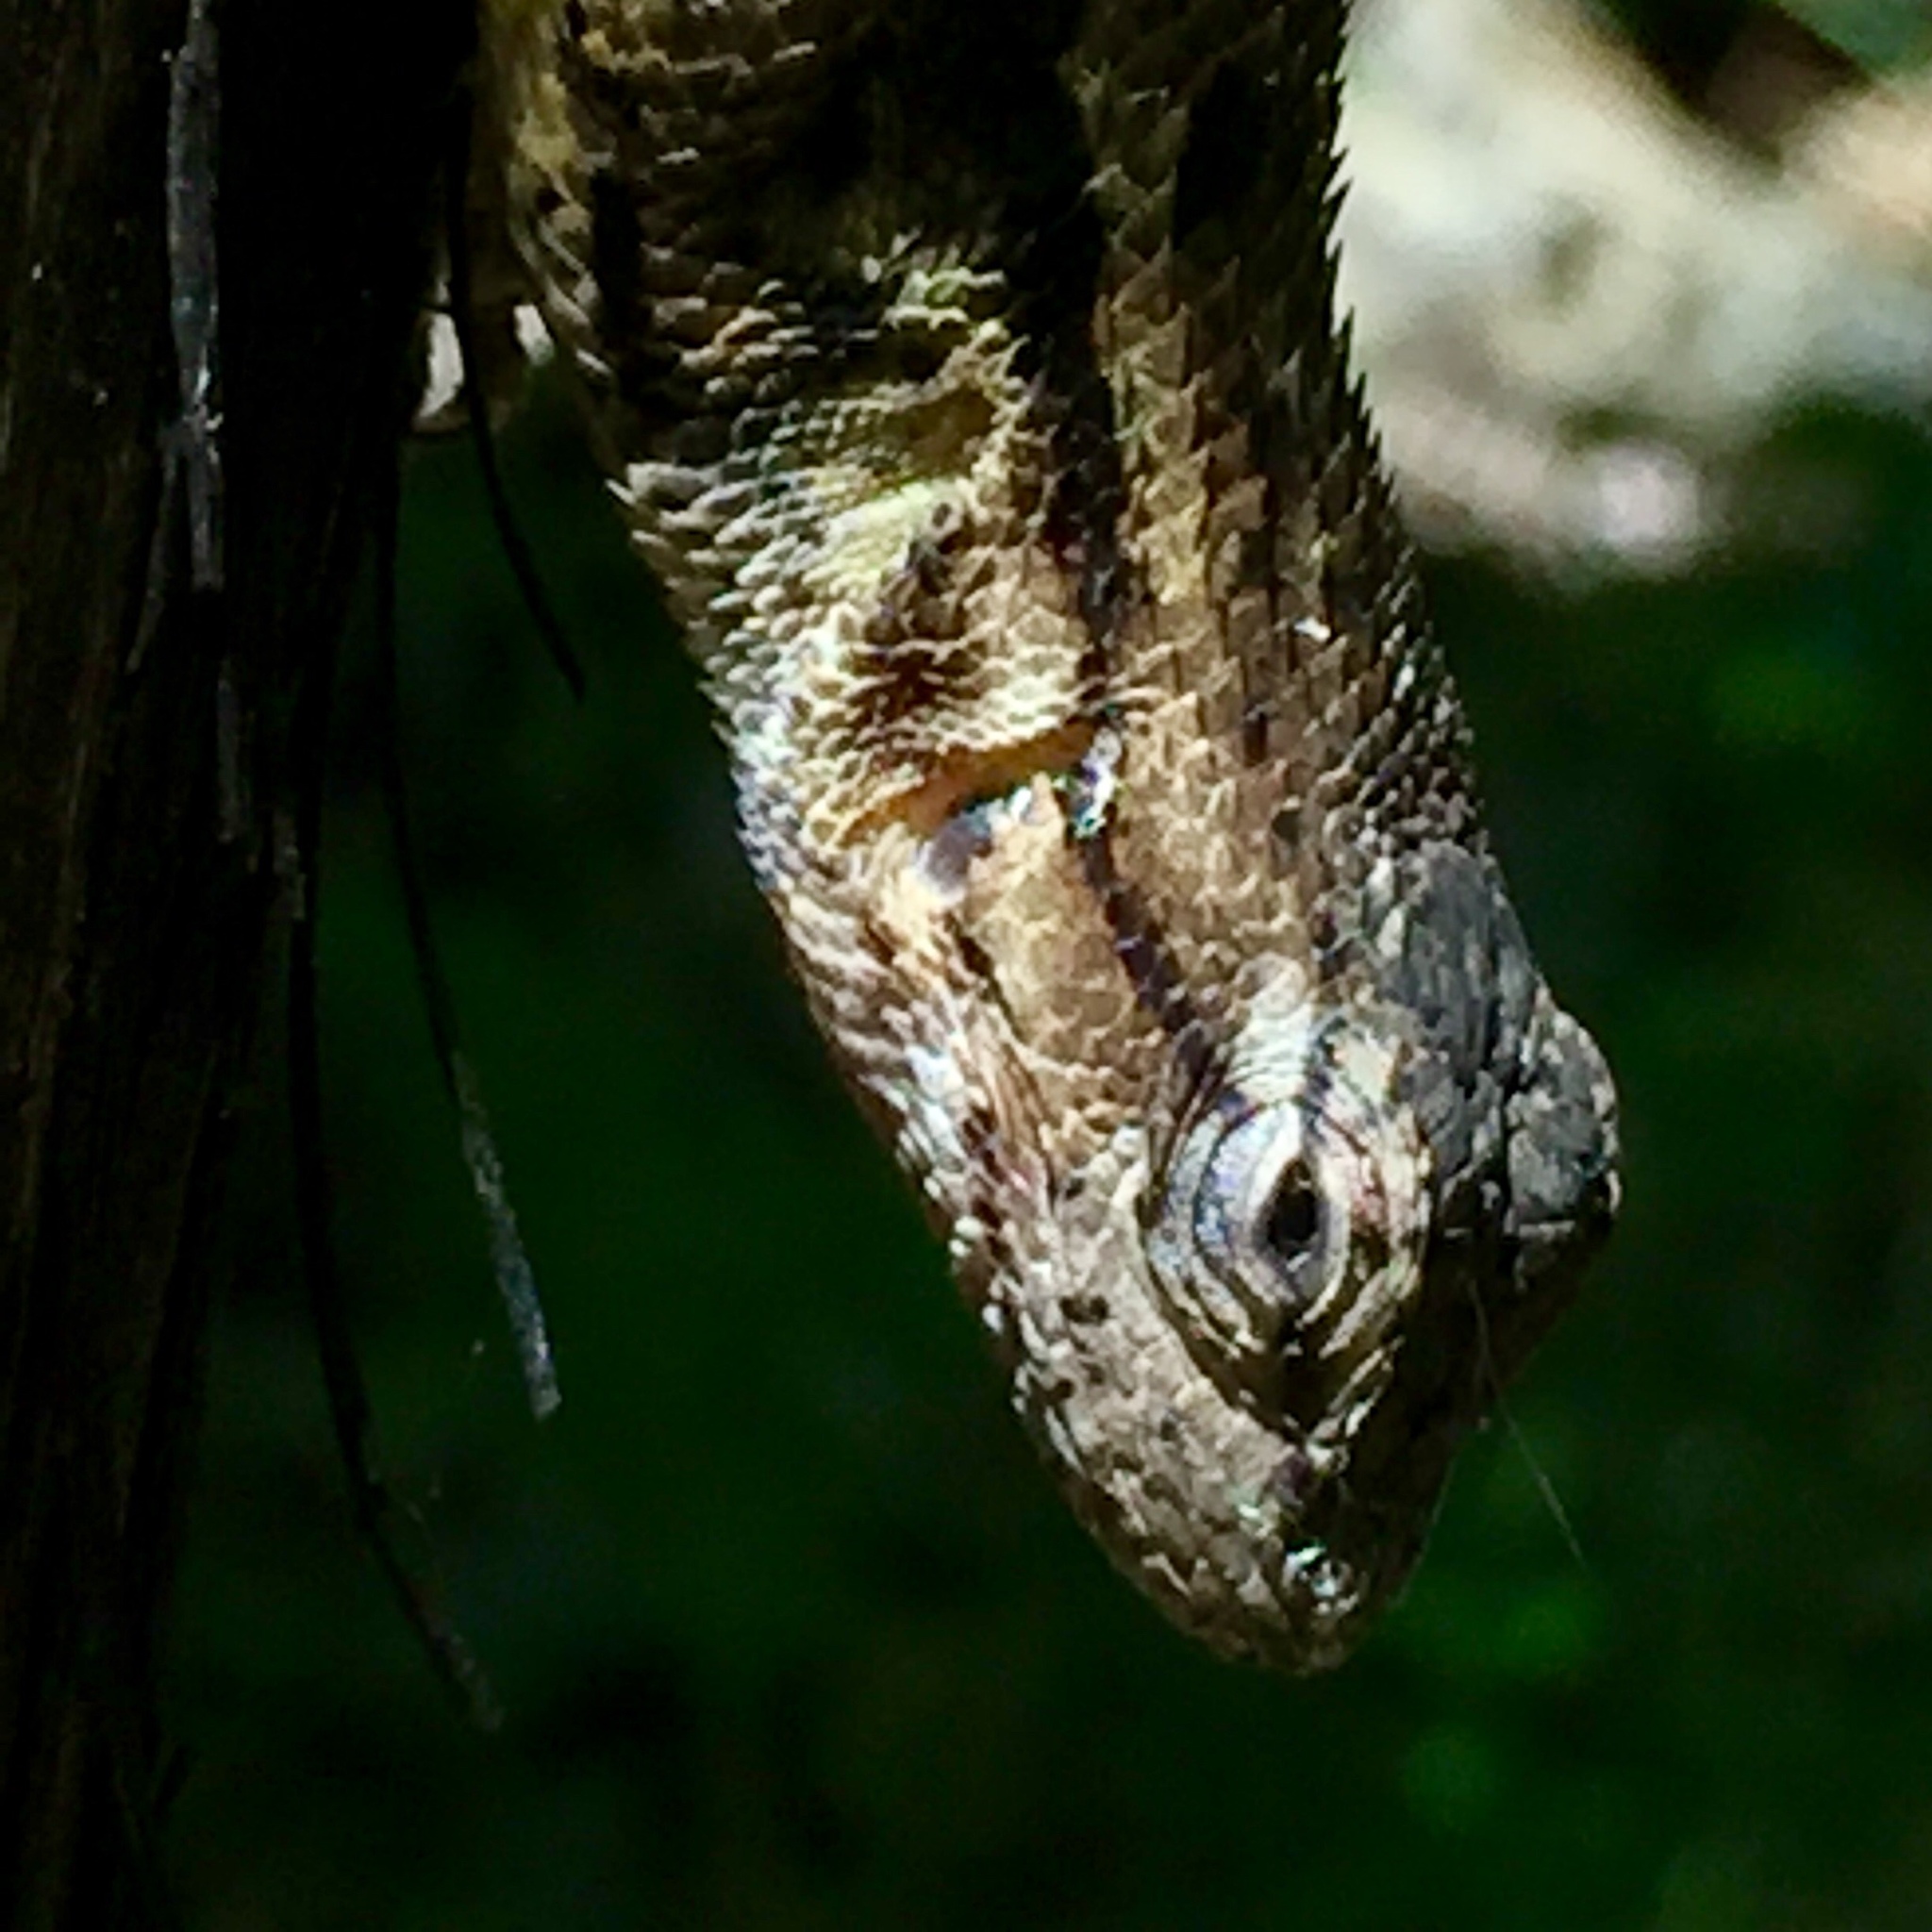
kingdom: Animalia
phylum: Chordata
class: Squamata
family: Phrynosomatidae
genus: Sceloporus
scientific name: Sceloporus occidentalis
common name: Western fence lizard
